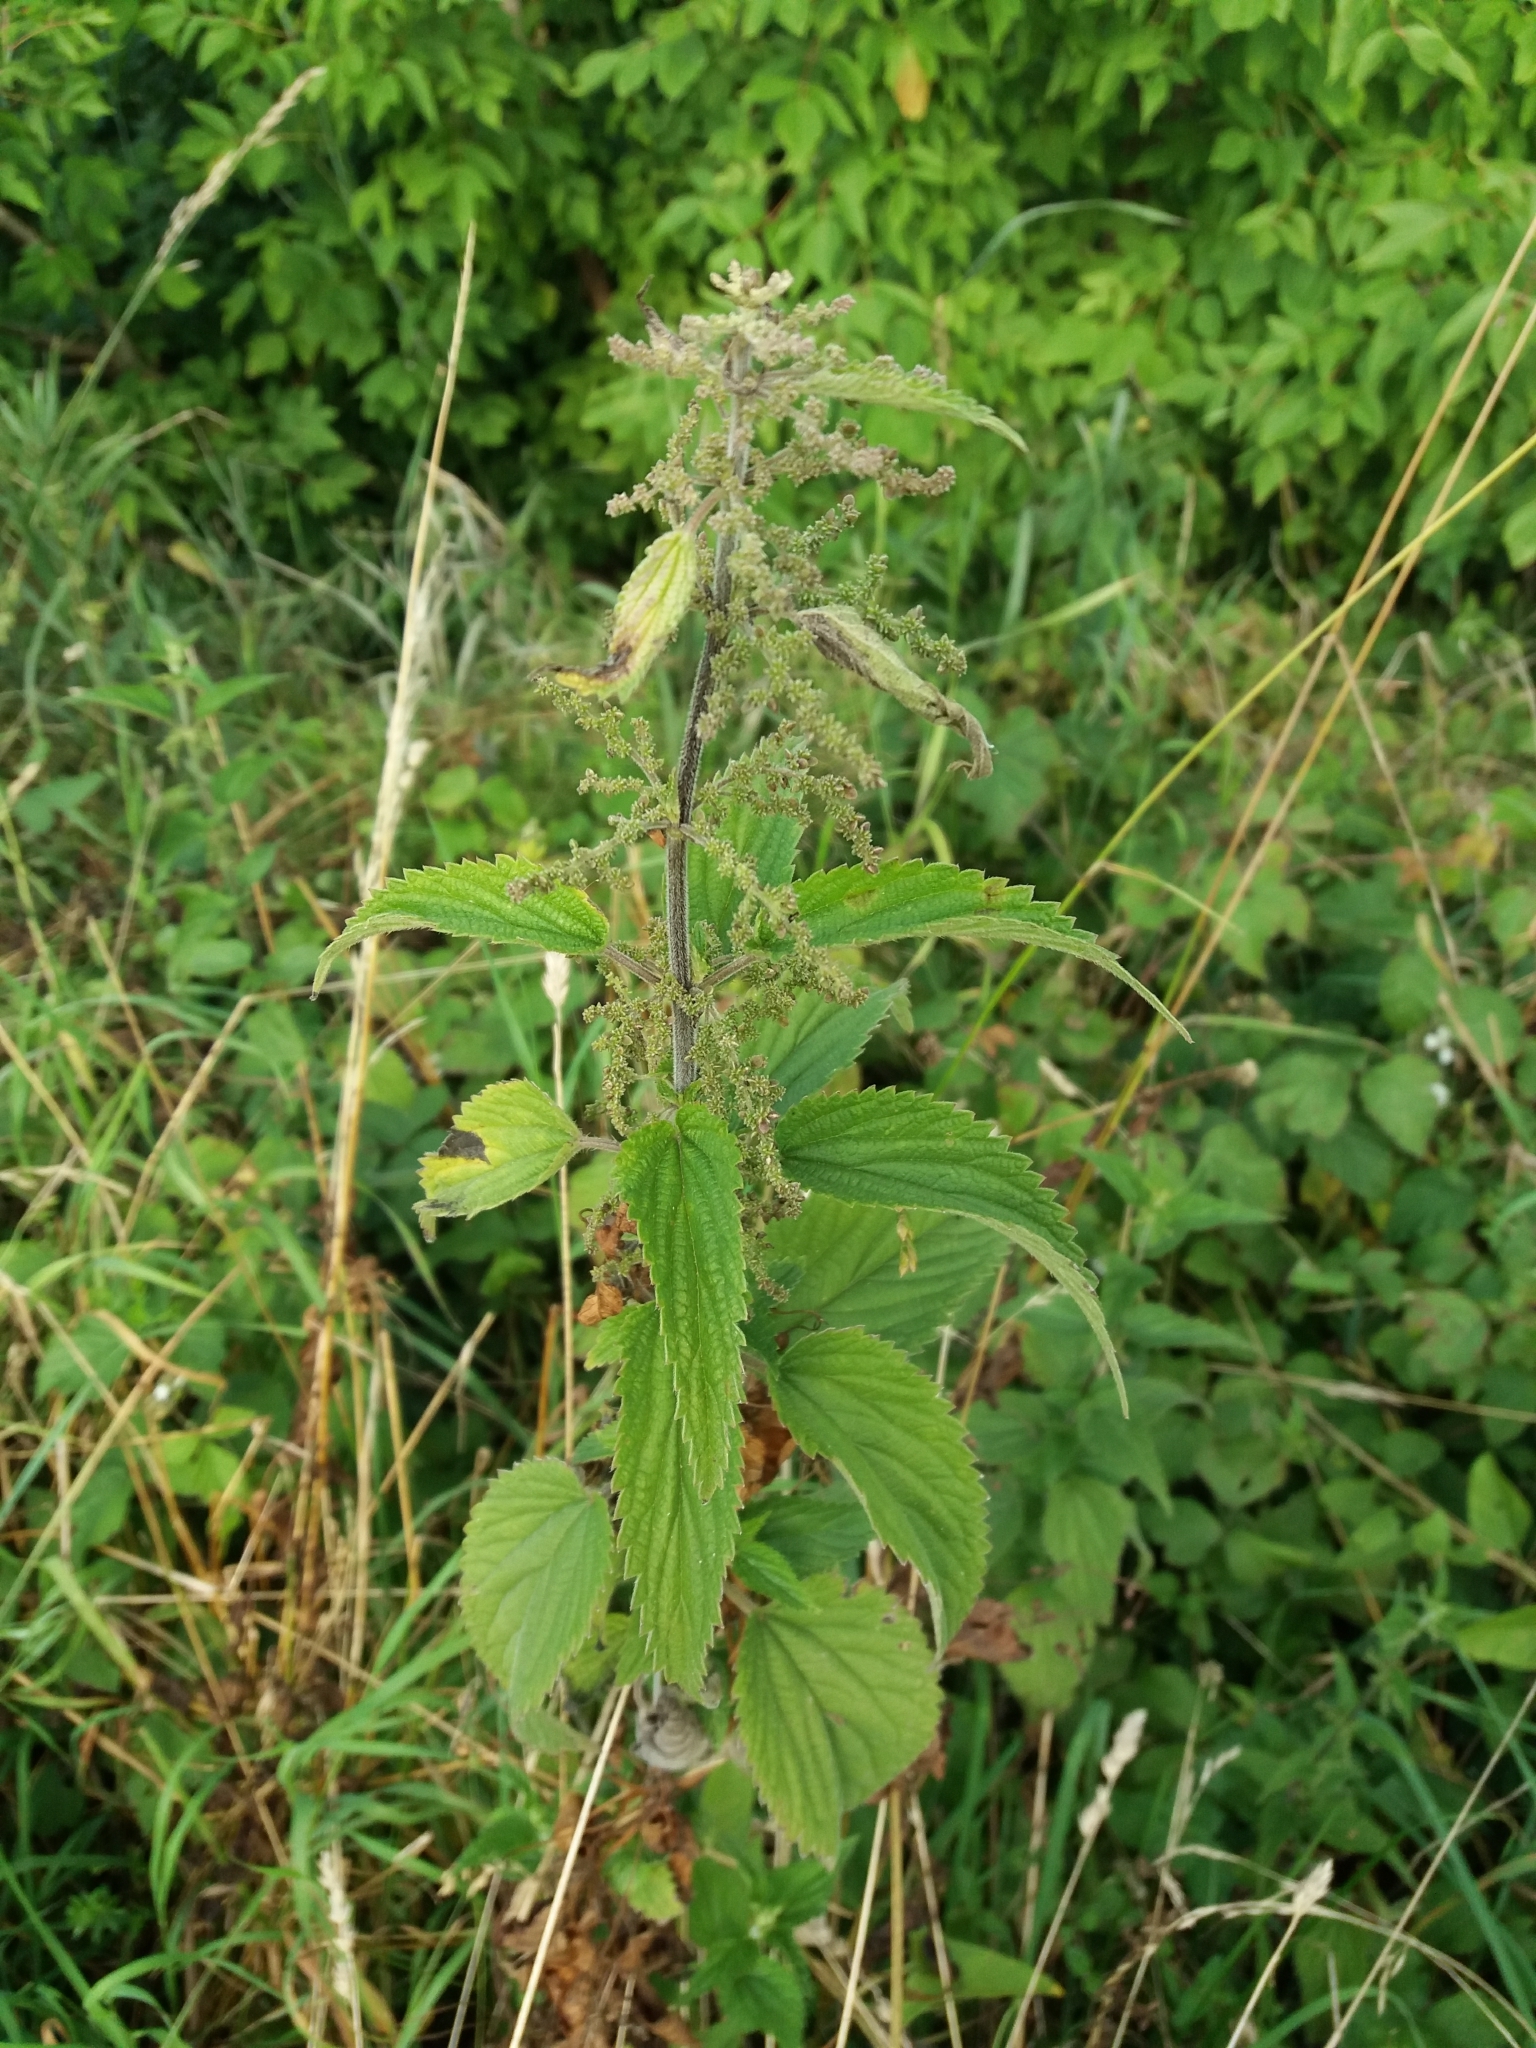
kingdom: Plantae
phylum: Tracheophyta
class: Magnoliopsida
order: Rosales
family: Urticaceae
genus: Urtica
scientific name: Urtica dioica
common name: Common nettle
